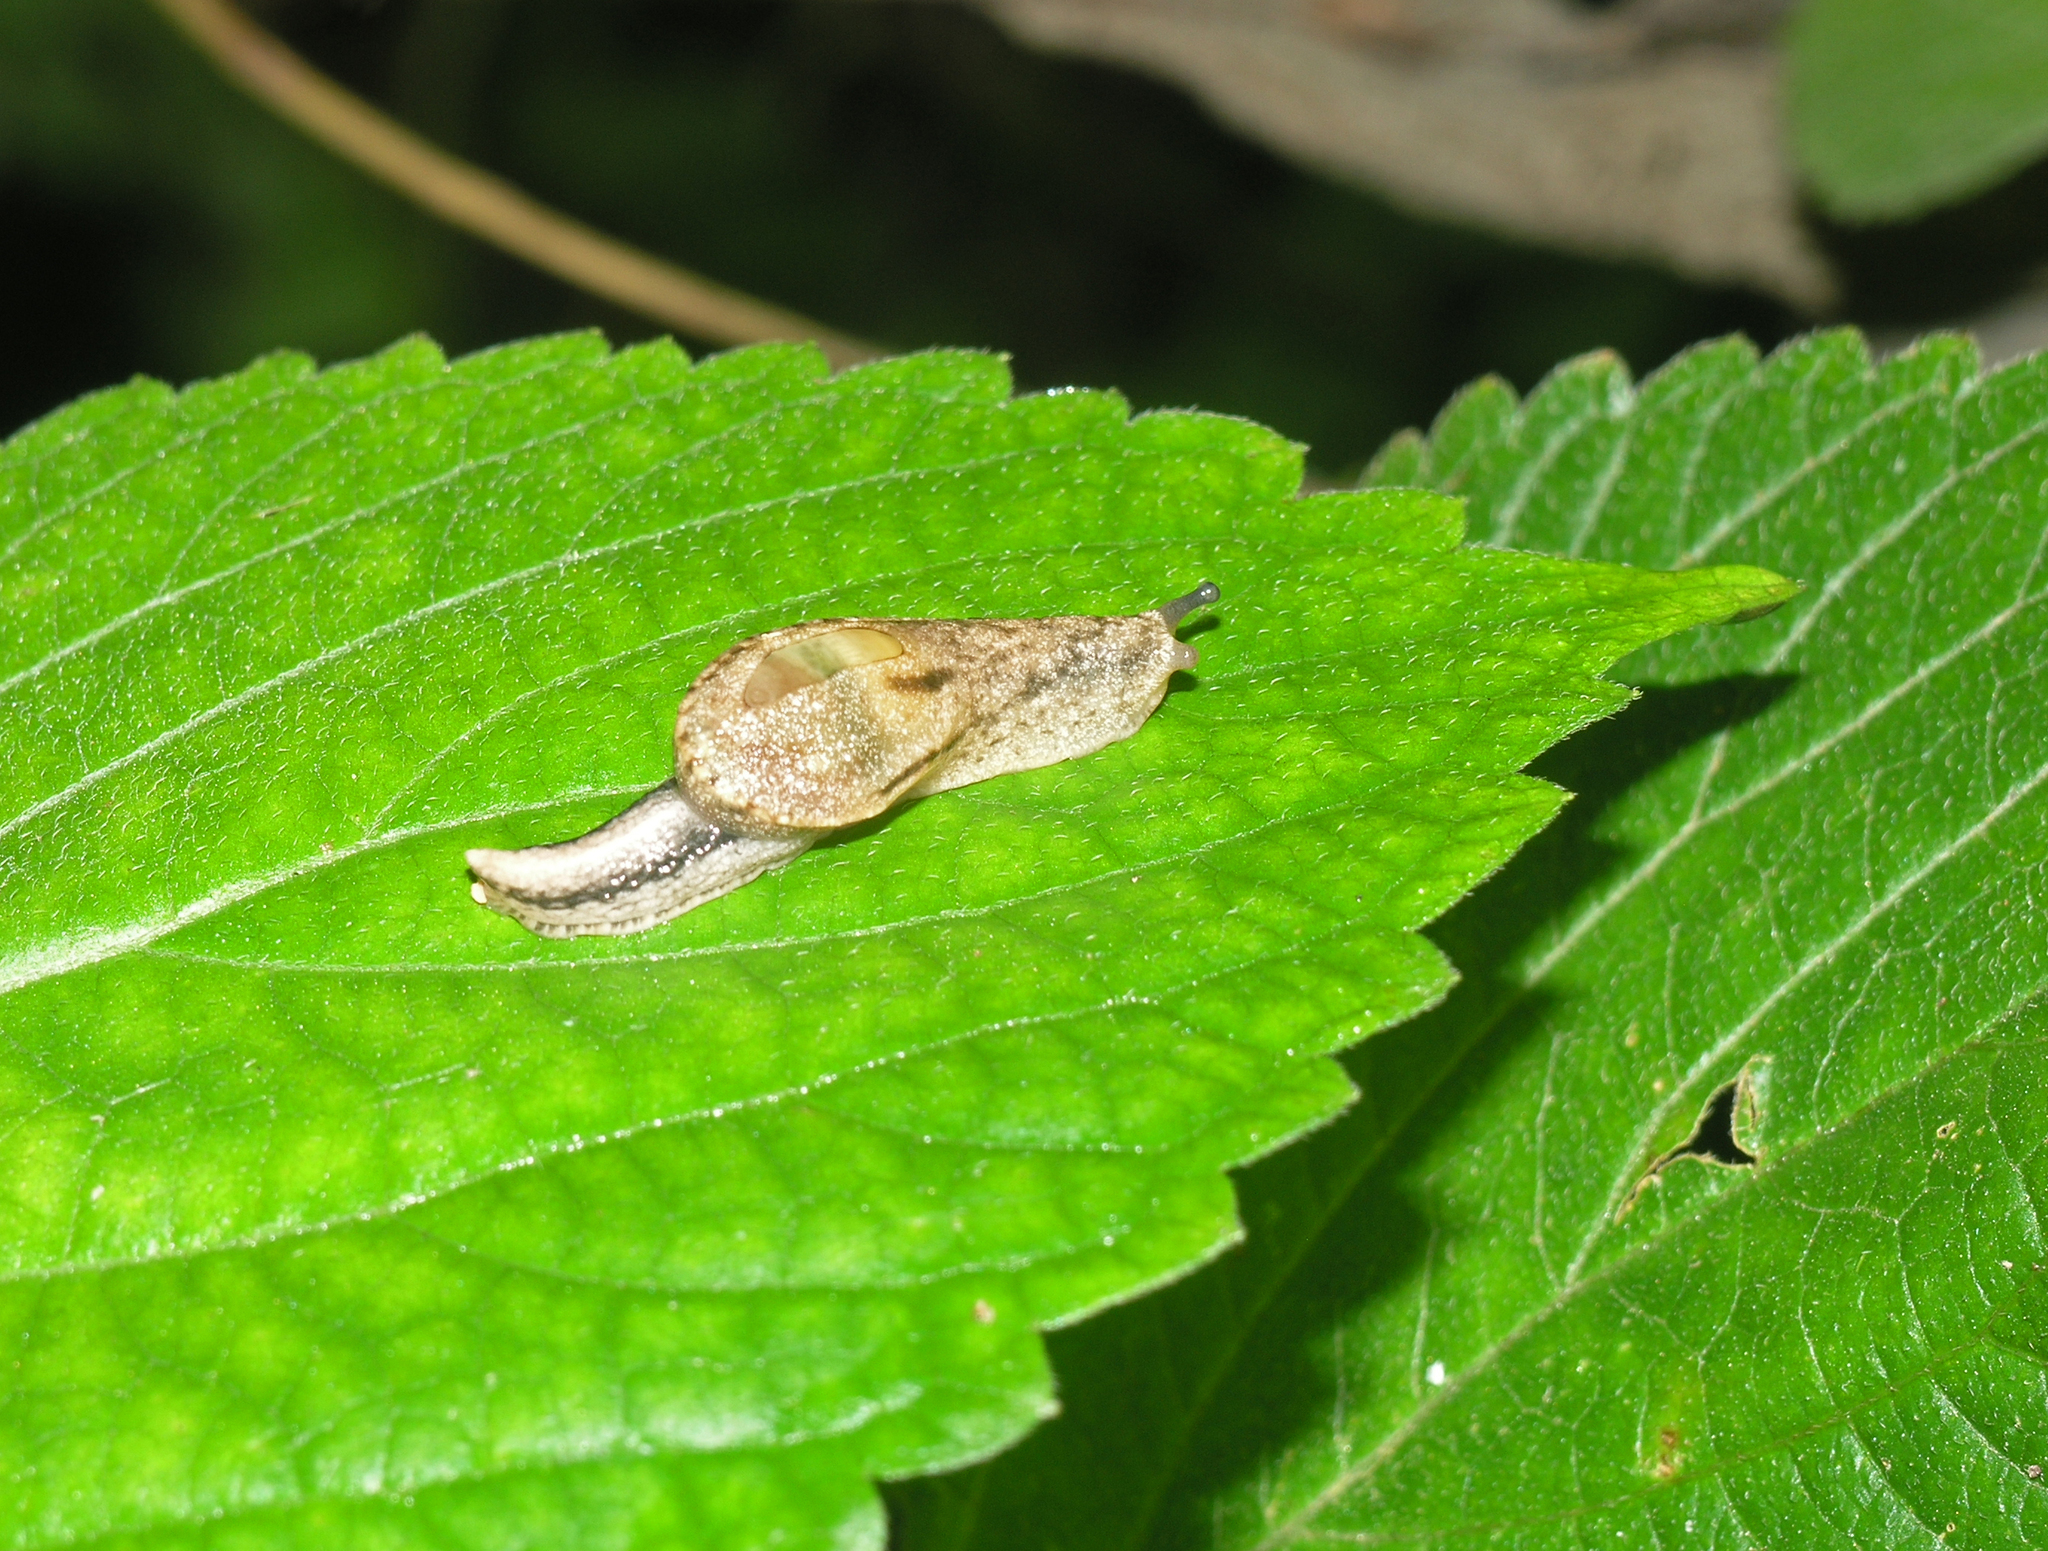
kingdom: Animalia
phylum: Mollusca
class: Gastropoda
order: Stylommatophora
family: Ariophantidae
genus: Parmarion
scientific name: Parmarion martensi
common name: Semi-slug
